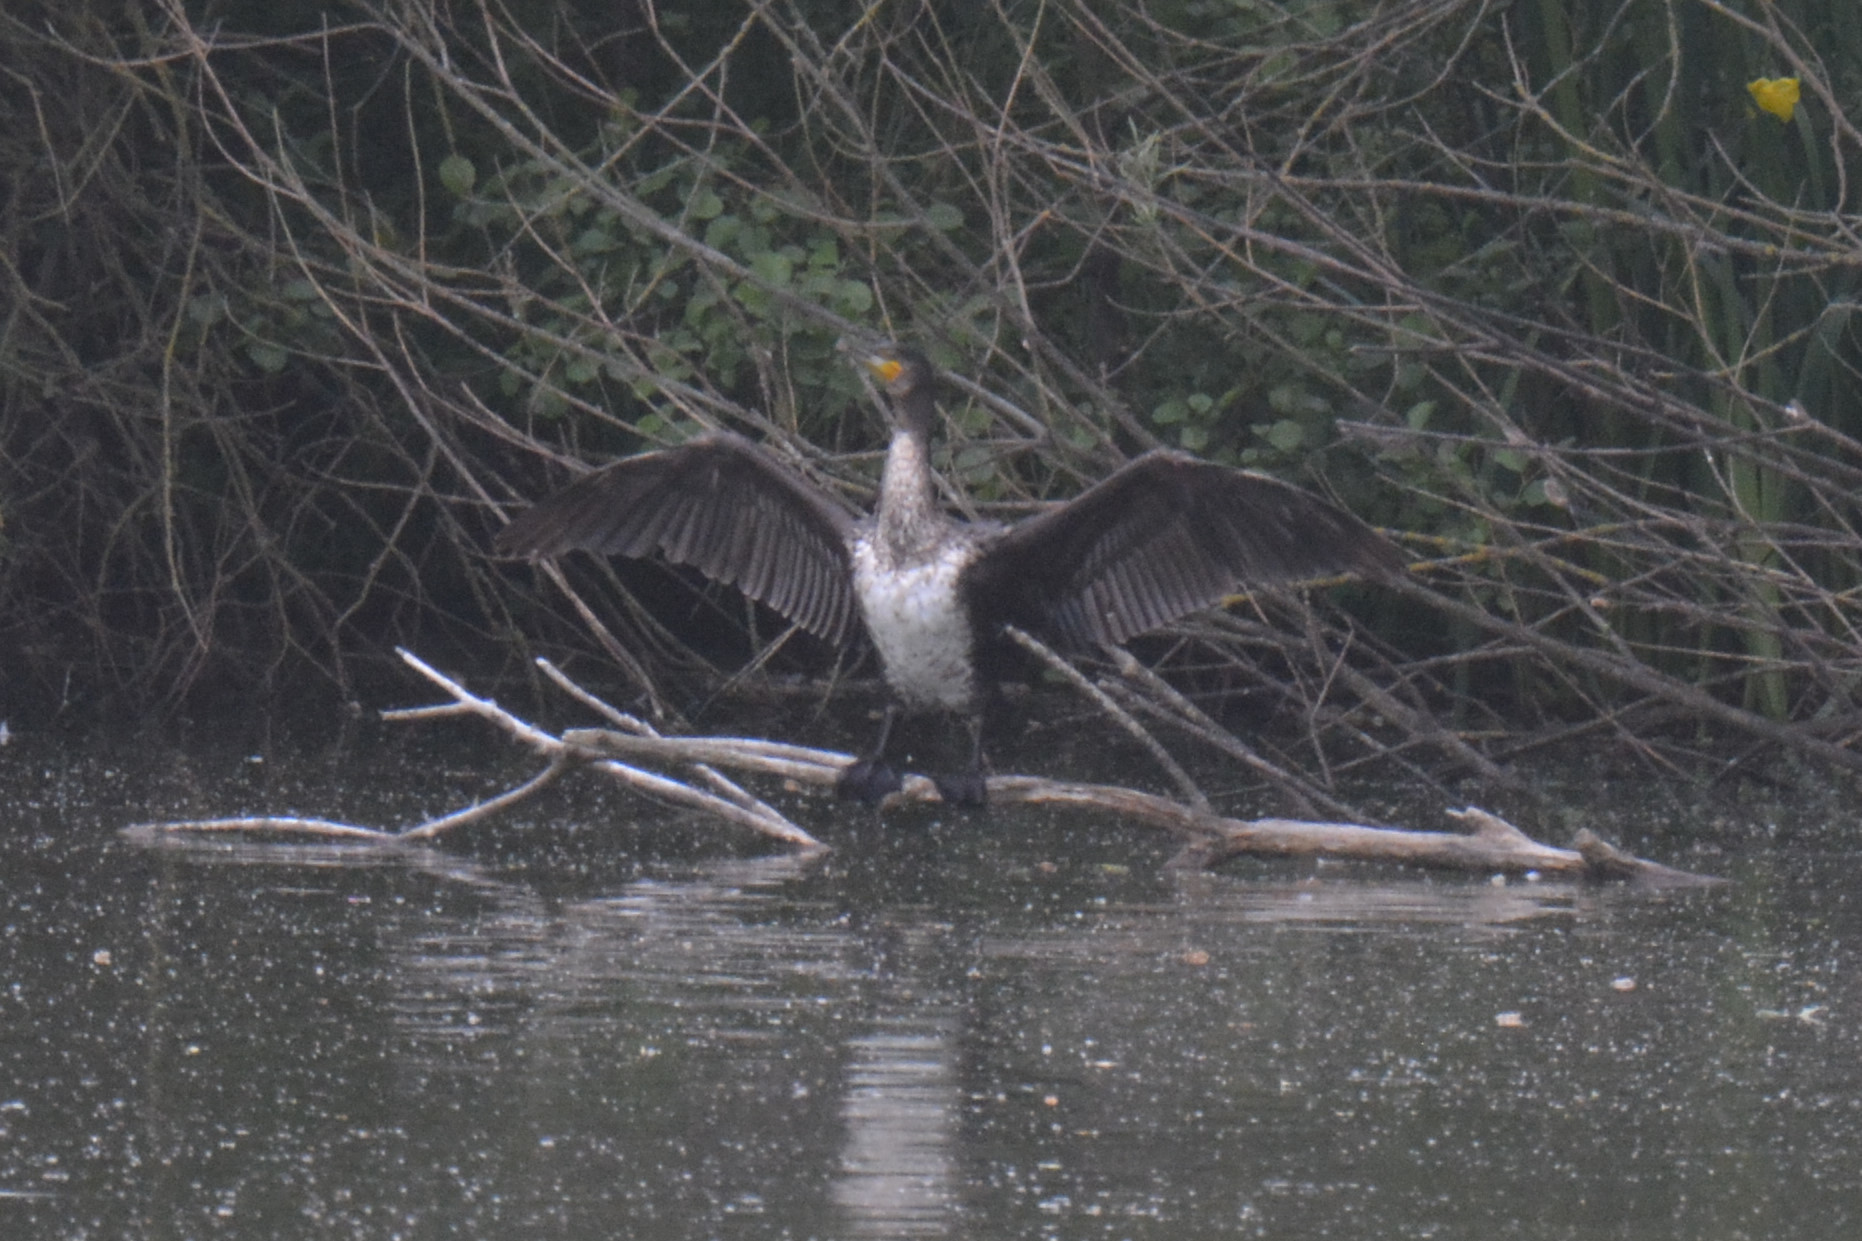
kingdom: Animalia
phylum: Chordata
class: Aves
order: Suliformes
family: Phalacrocoracidae
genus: Phalacrocorax
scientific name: Phalacrocorax carbo
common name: Great cormorant
